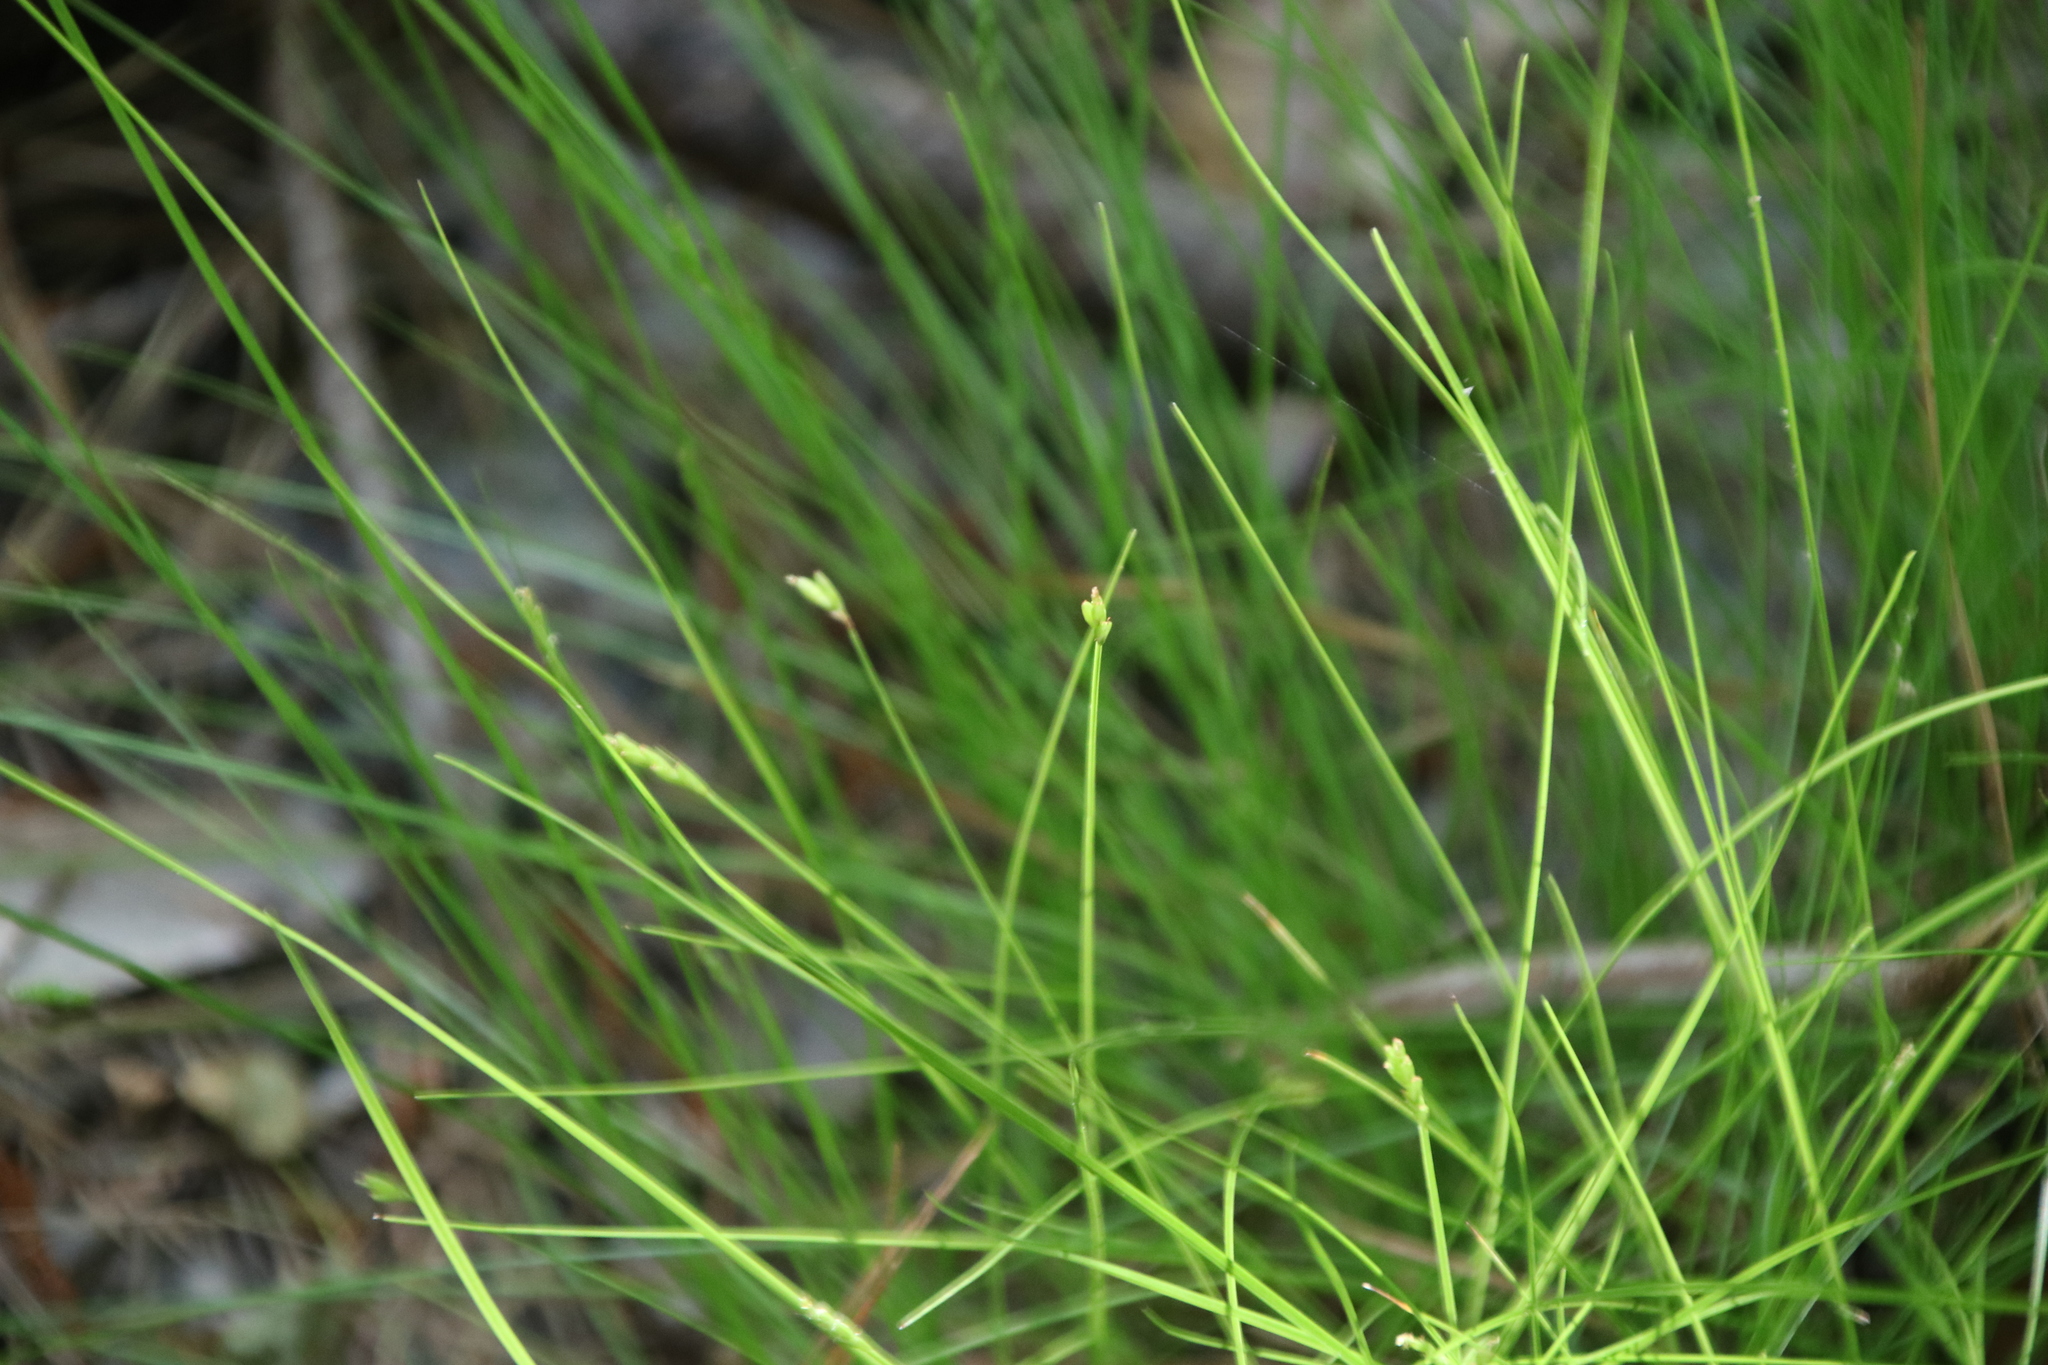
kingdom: Plantae
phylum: Tracheophyta
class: Liliopsida
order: Poales
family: Cyperaceae
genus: Carex
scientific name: Carex leptalea
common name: Bristly-stalked sedge
